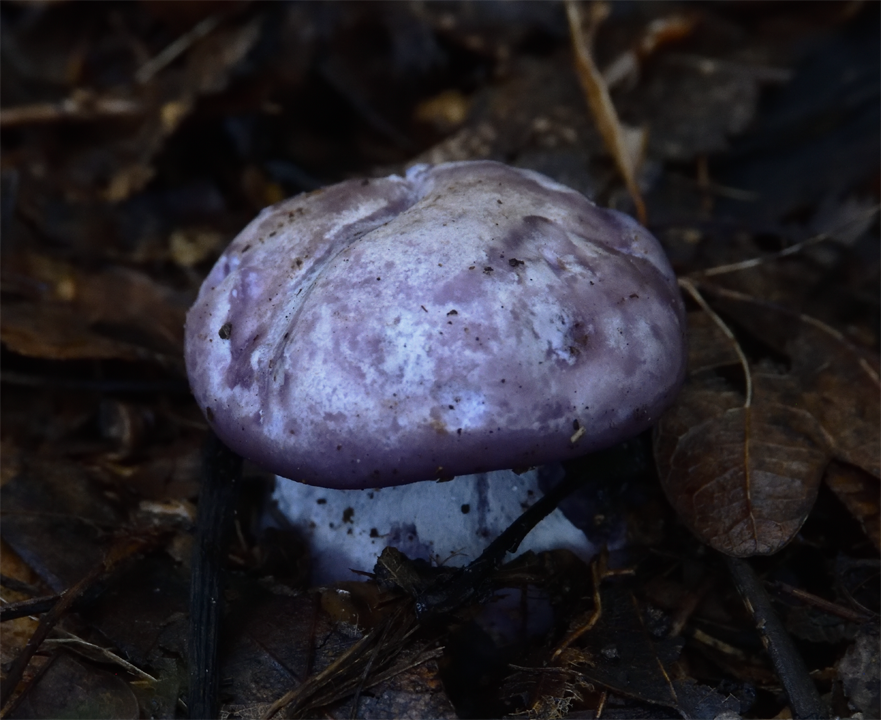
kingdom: Fungi
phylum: Basidiomycota
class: Agaricomycetes
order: Agaricales
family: Tricholomataceae
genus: Collybia
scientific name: Collybia
